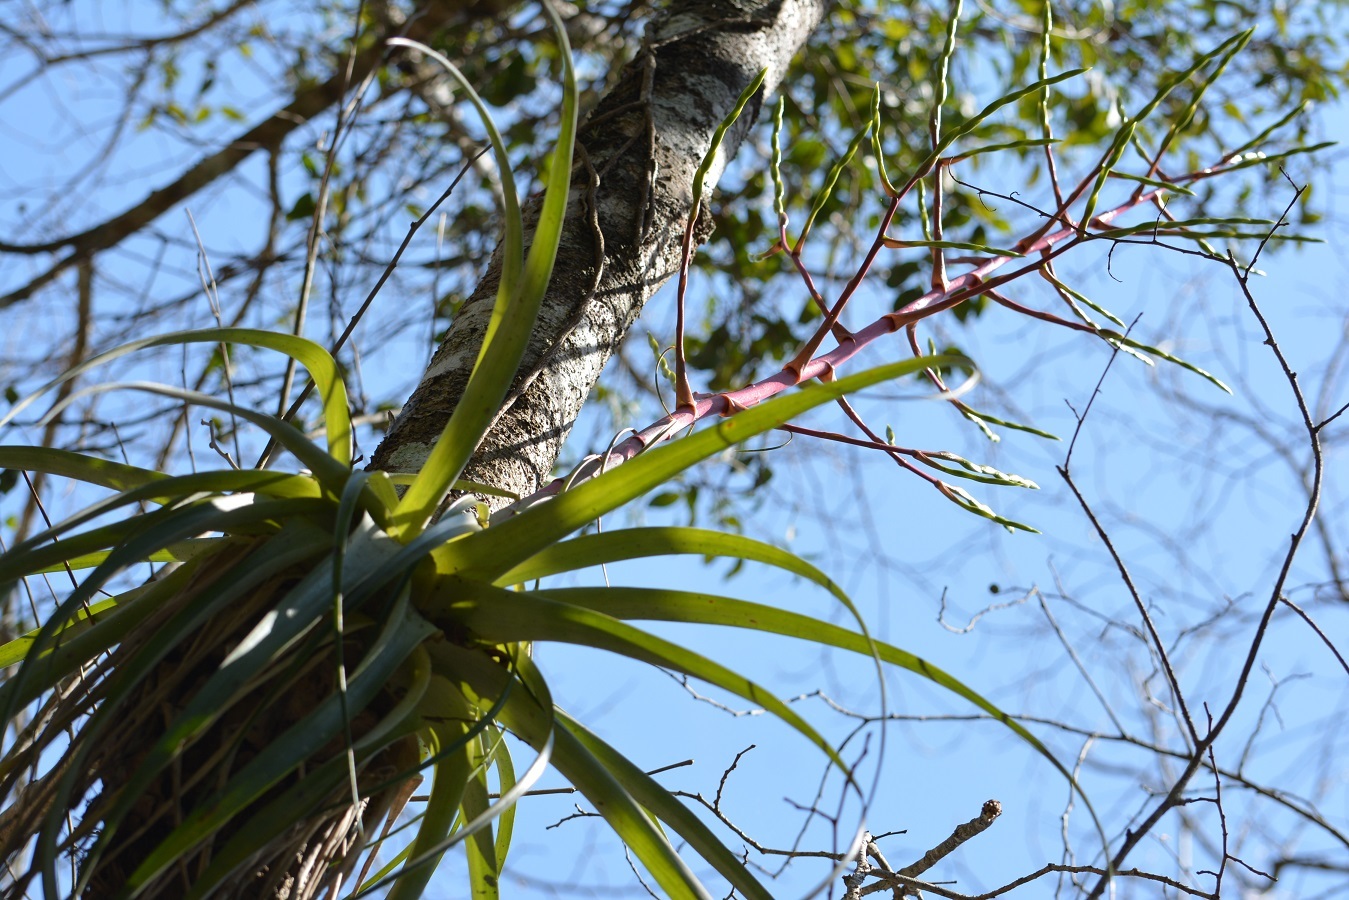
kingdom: Plantae
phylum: Tracheophyta
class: Liliopsida
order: Poales
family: Bromeliaceae
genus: Tillandsia
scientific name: Tillandsia elusiva
